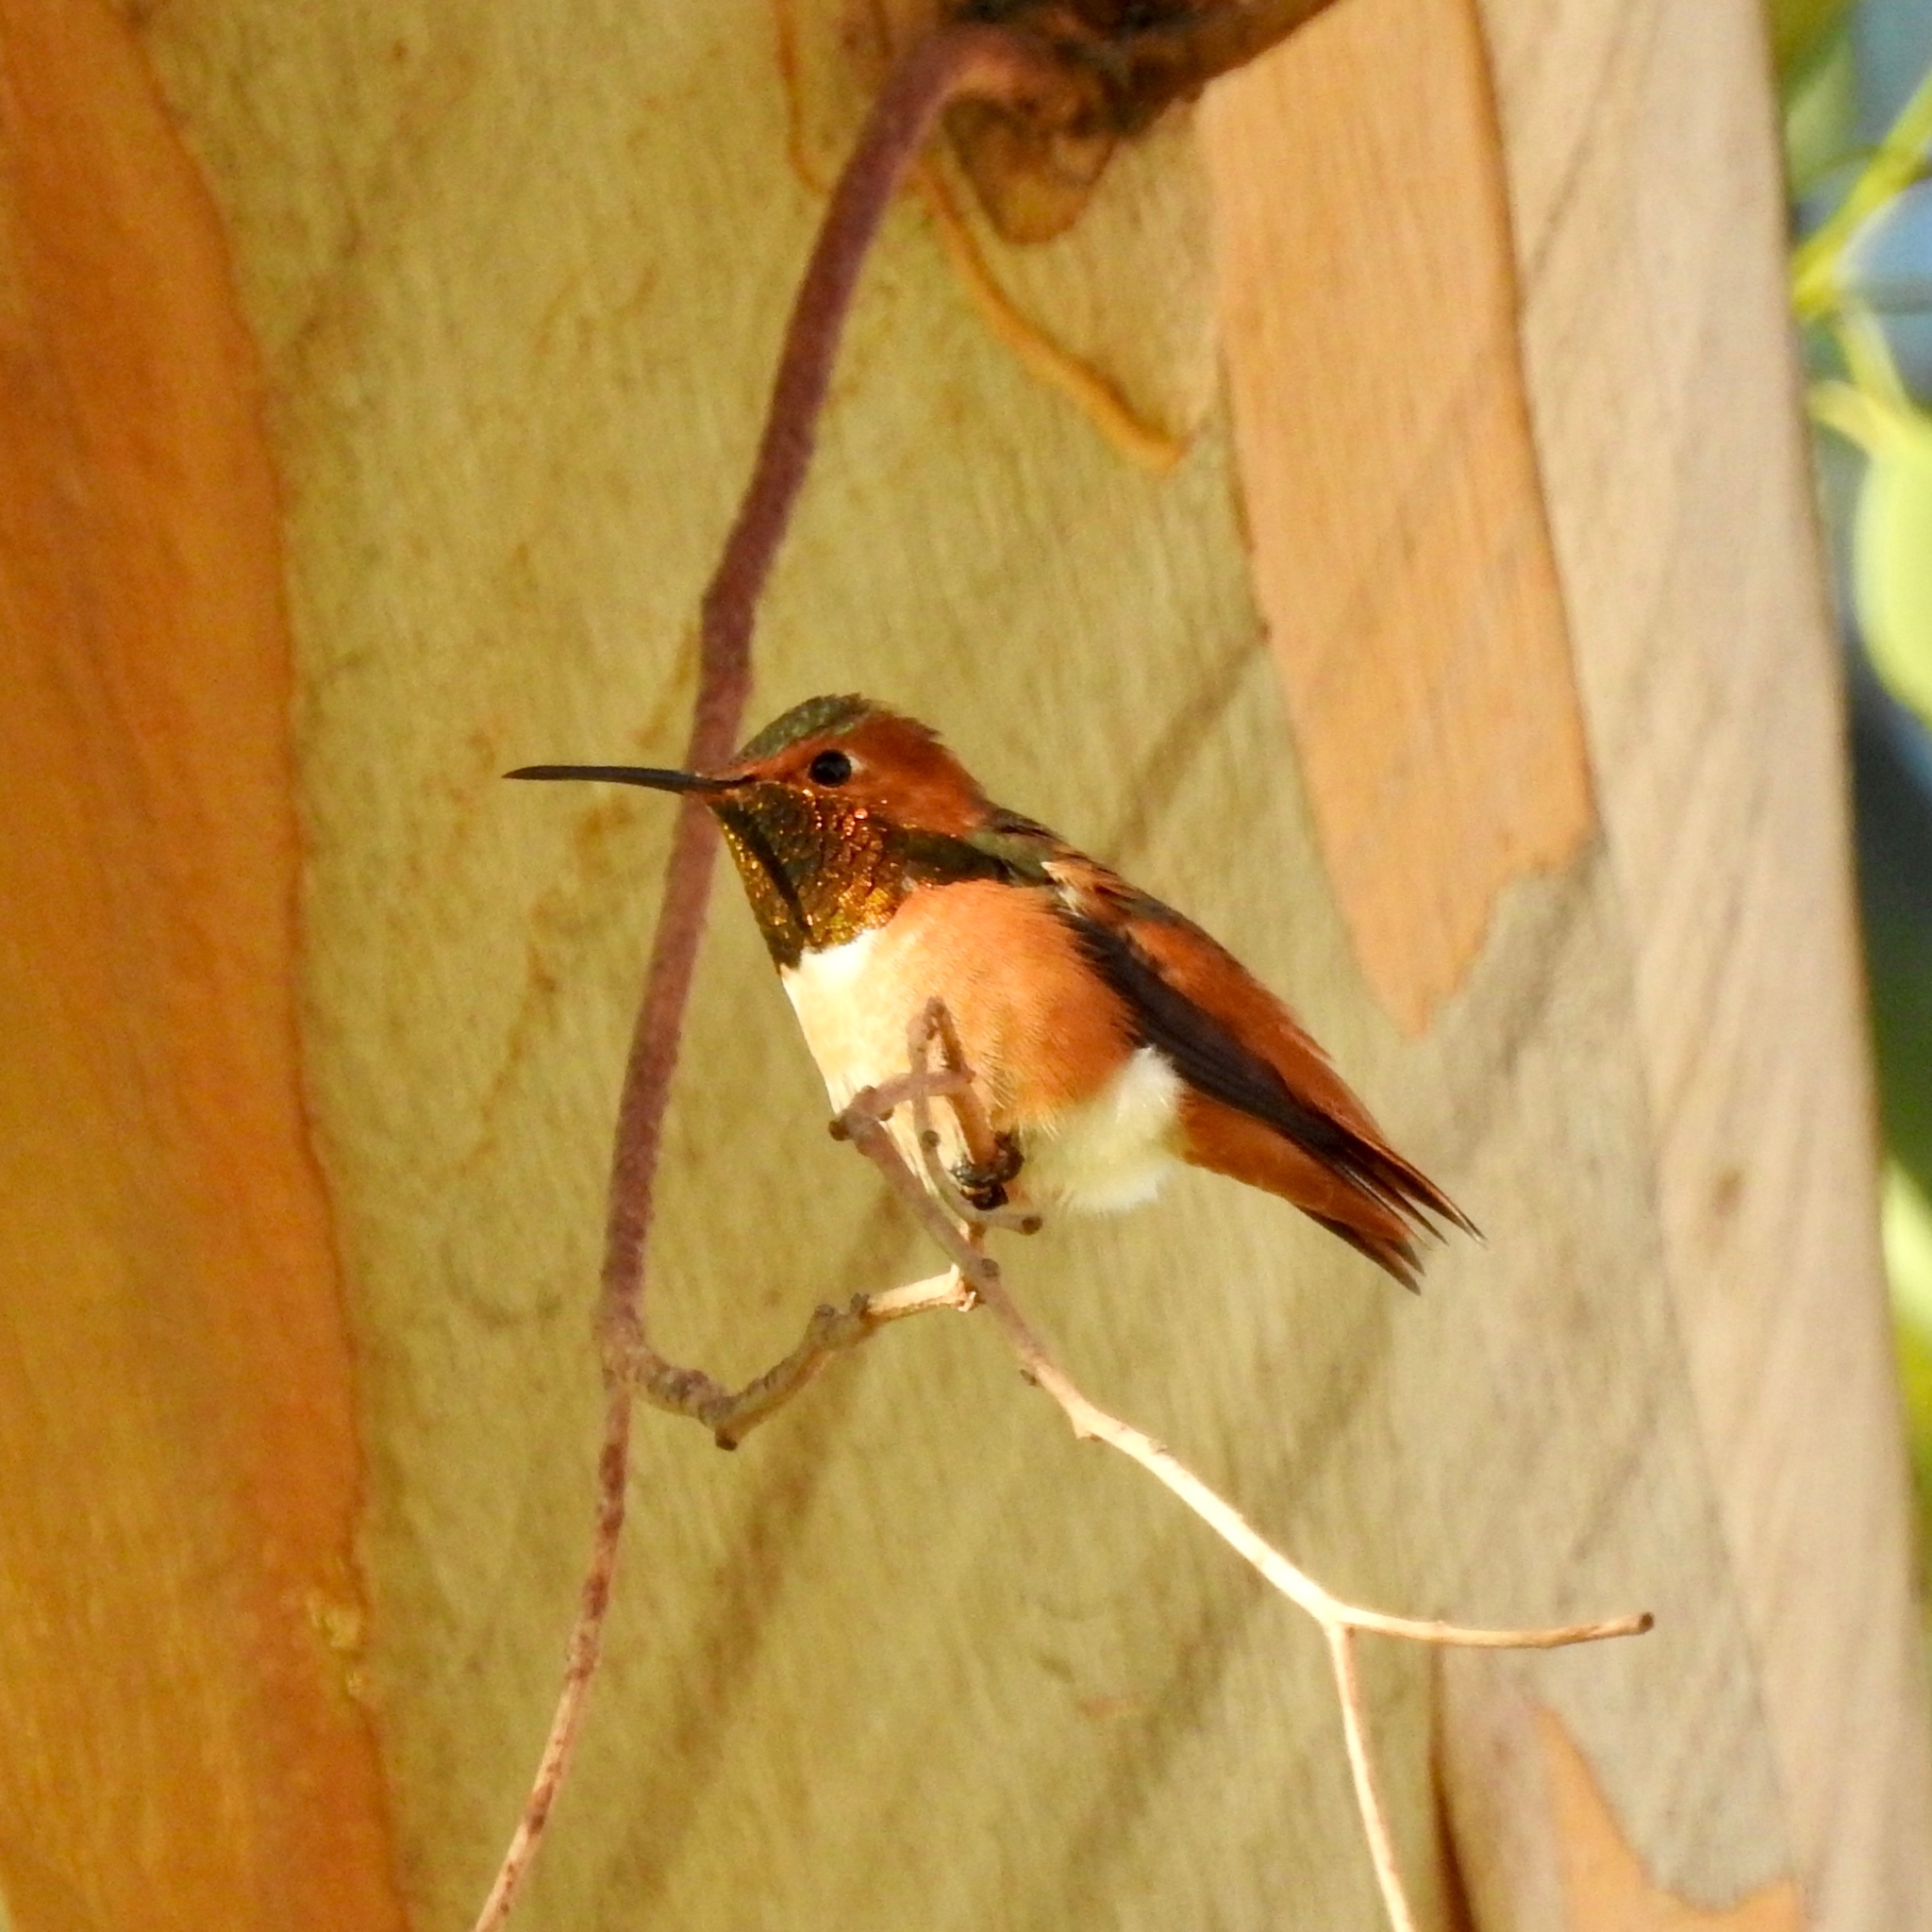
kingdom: Animalia
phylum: Chordata
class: Aves
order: Apodiformes
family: Trochilidae
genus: Selasphorus
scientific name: Selasphorus sasin
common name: Allen's hummingbird
